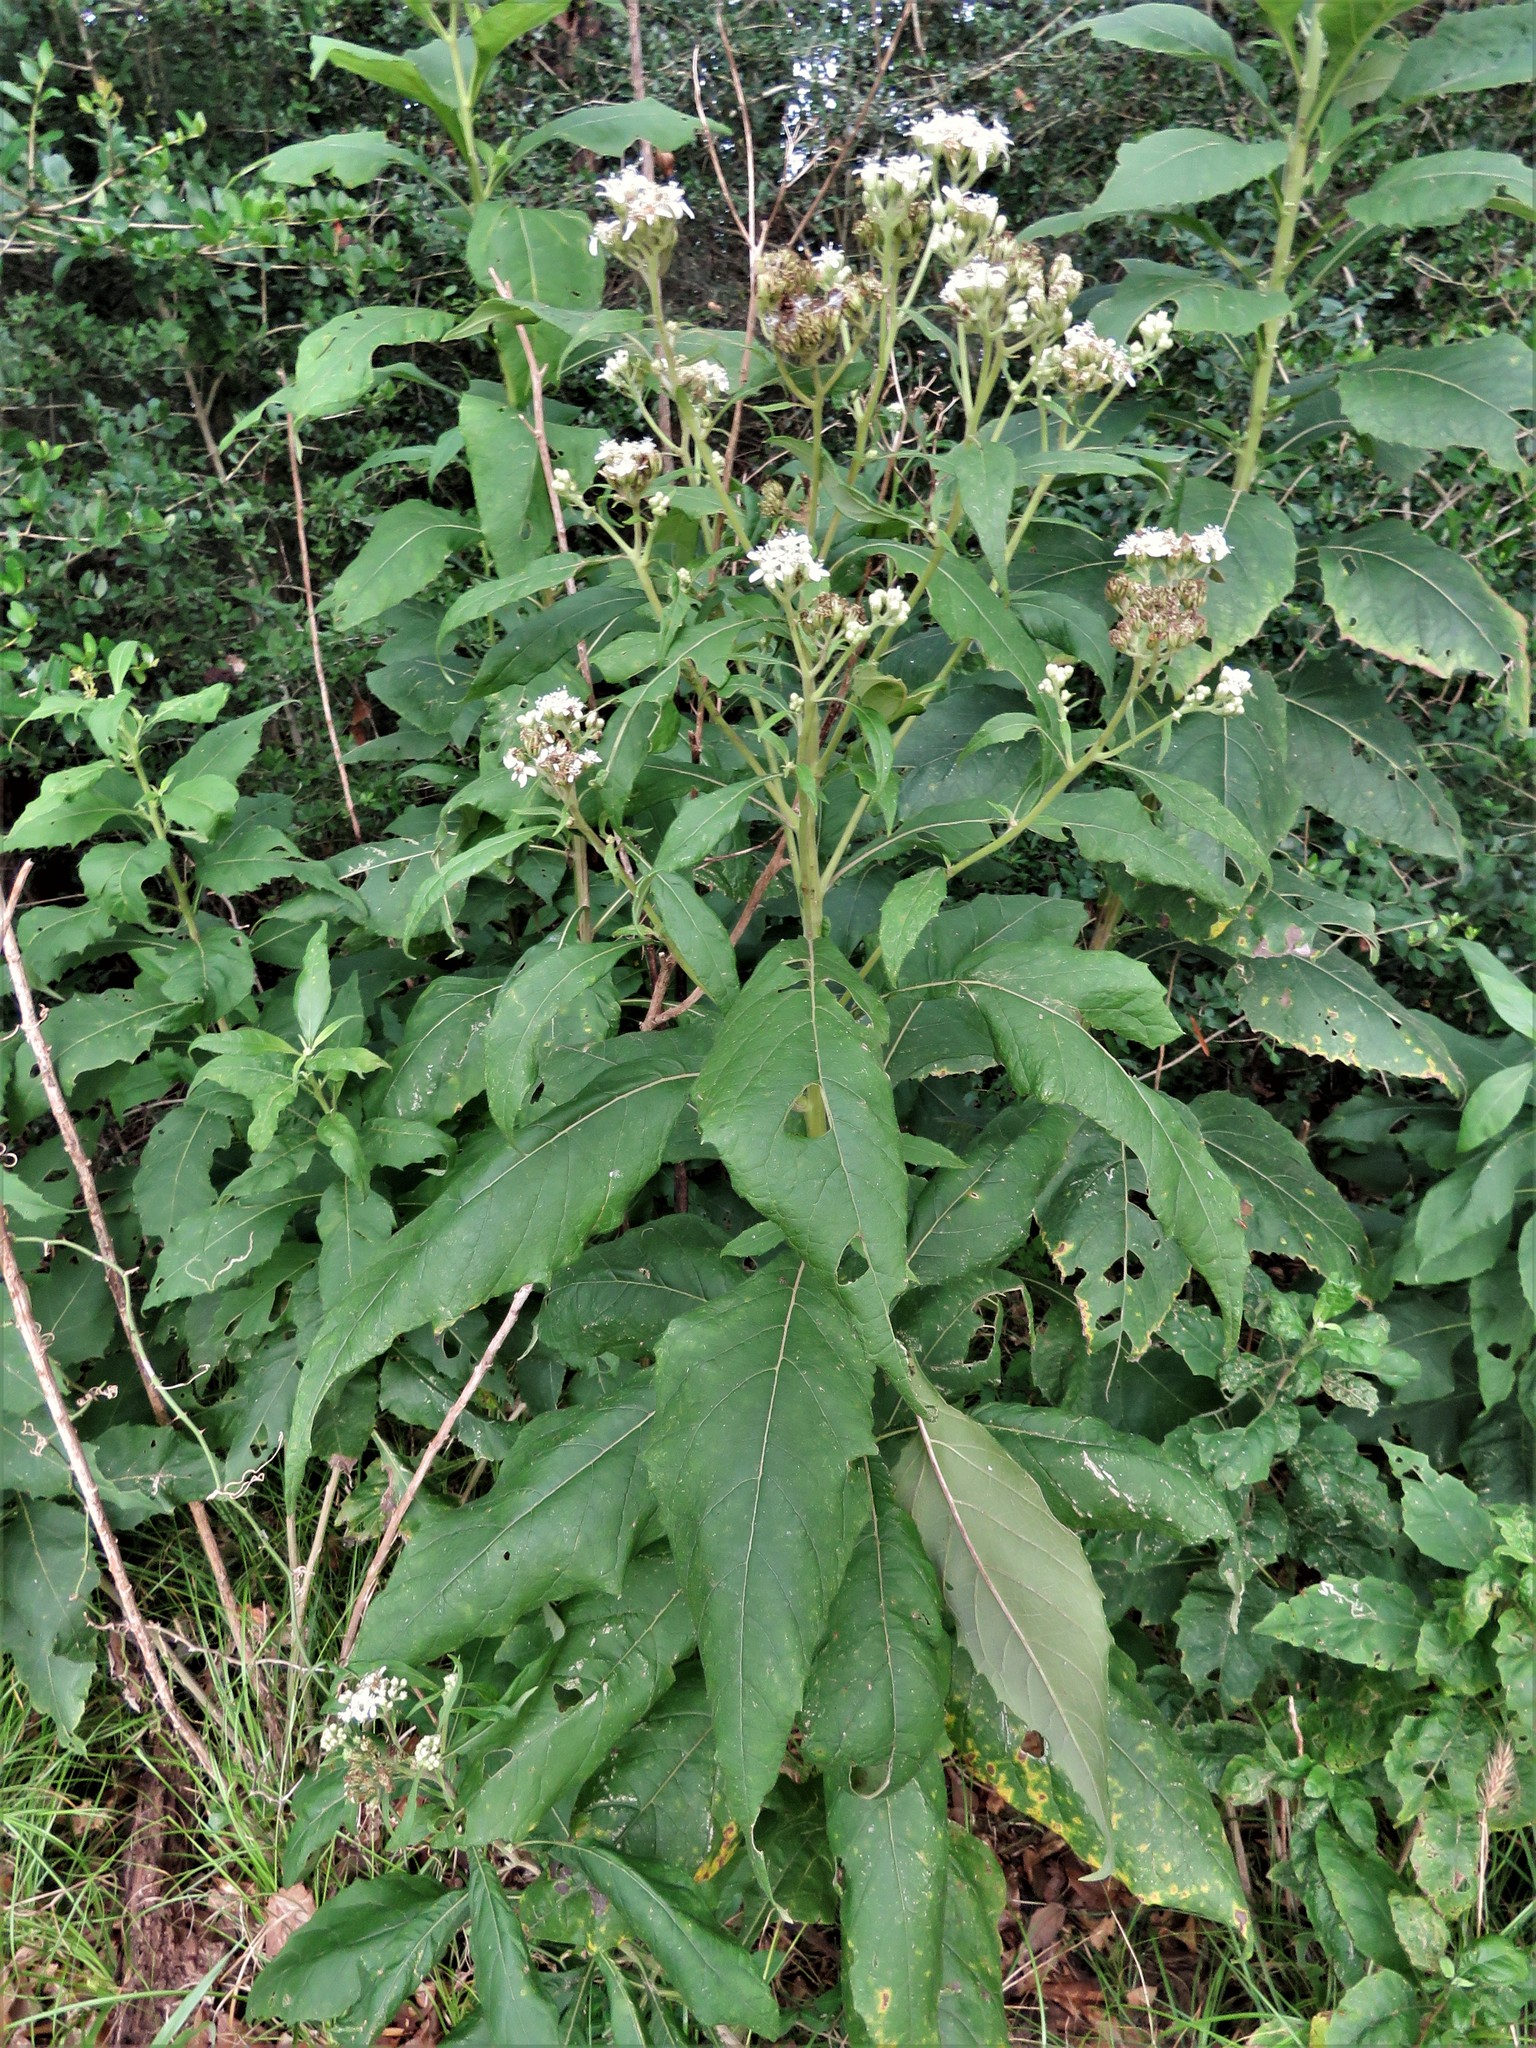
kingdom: Plantae
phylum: Tracheophyta
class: Magnoliopsida
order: Asterales
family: Asteraceae
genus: Verbesina
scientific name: Verbesina virginica
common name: Frostweed
